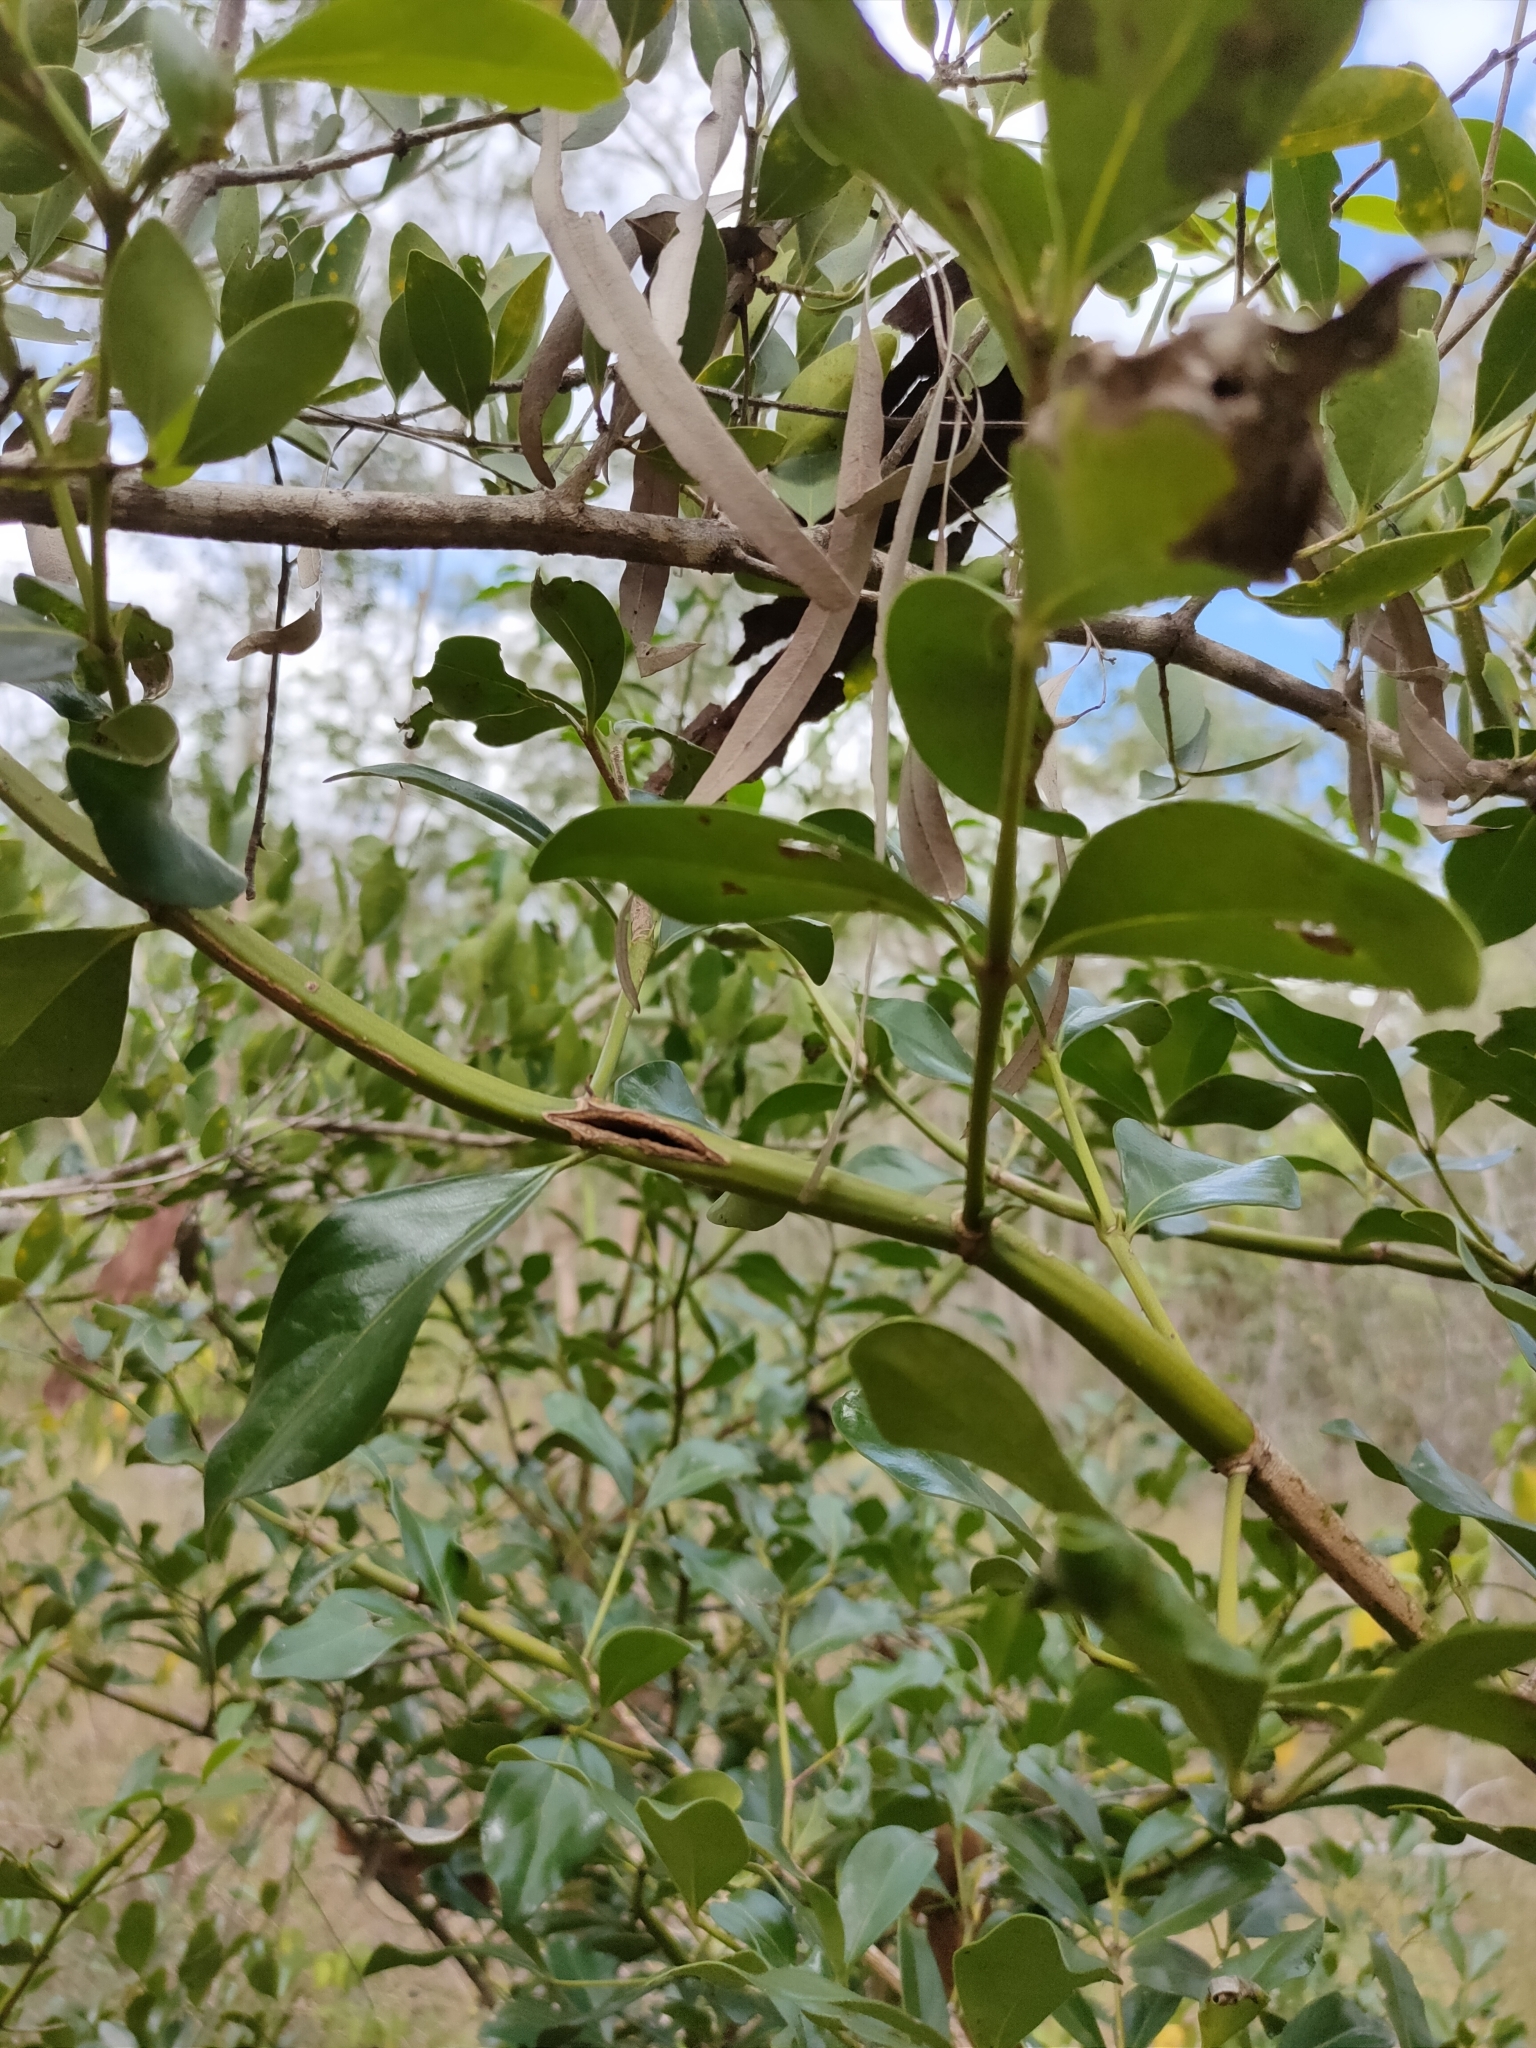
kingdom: Plantae
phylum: Tracheophyta
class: Magnoliopsida
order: Gentianales
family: Rubiaceae
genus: Psydrax
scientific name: Psydrax odoratus
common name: Alahe'e
